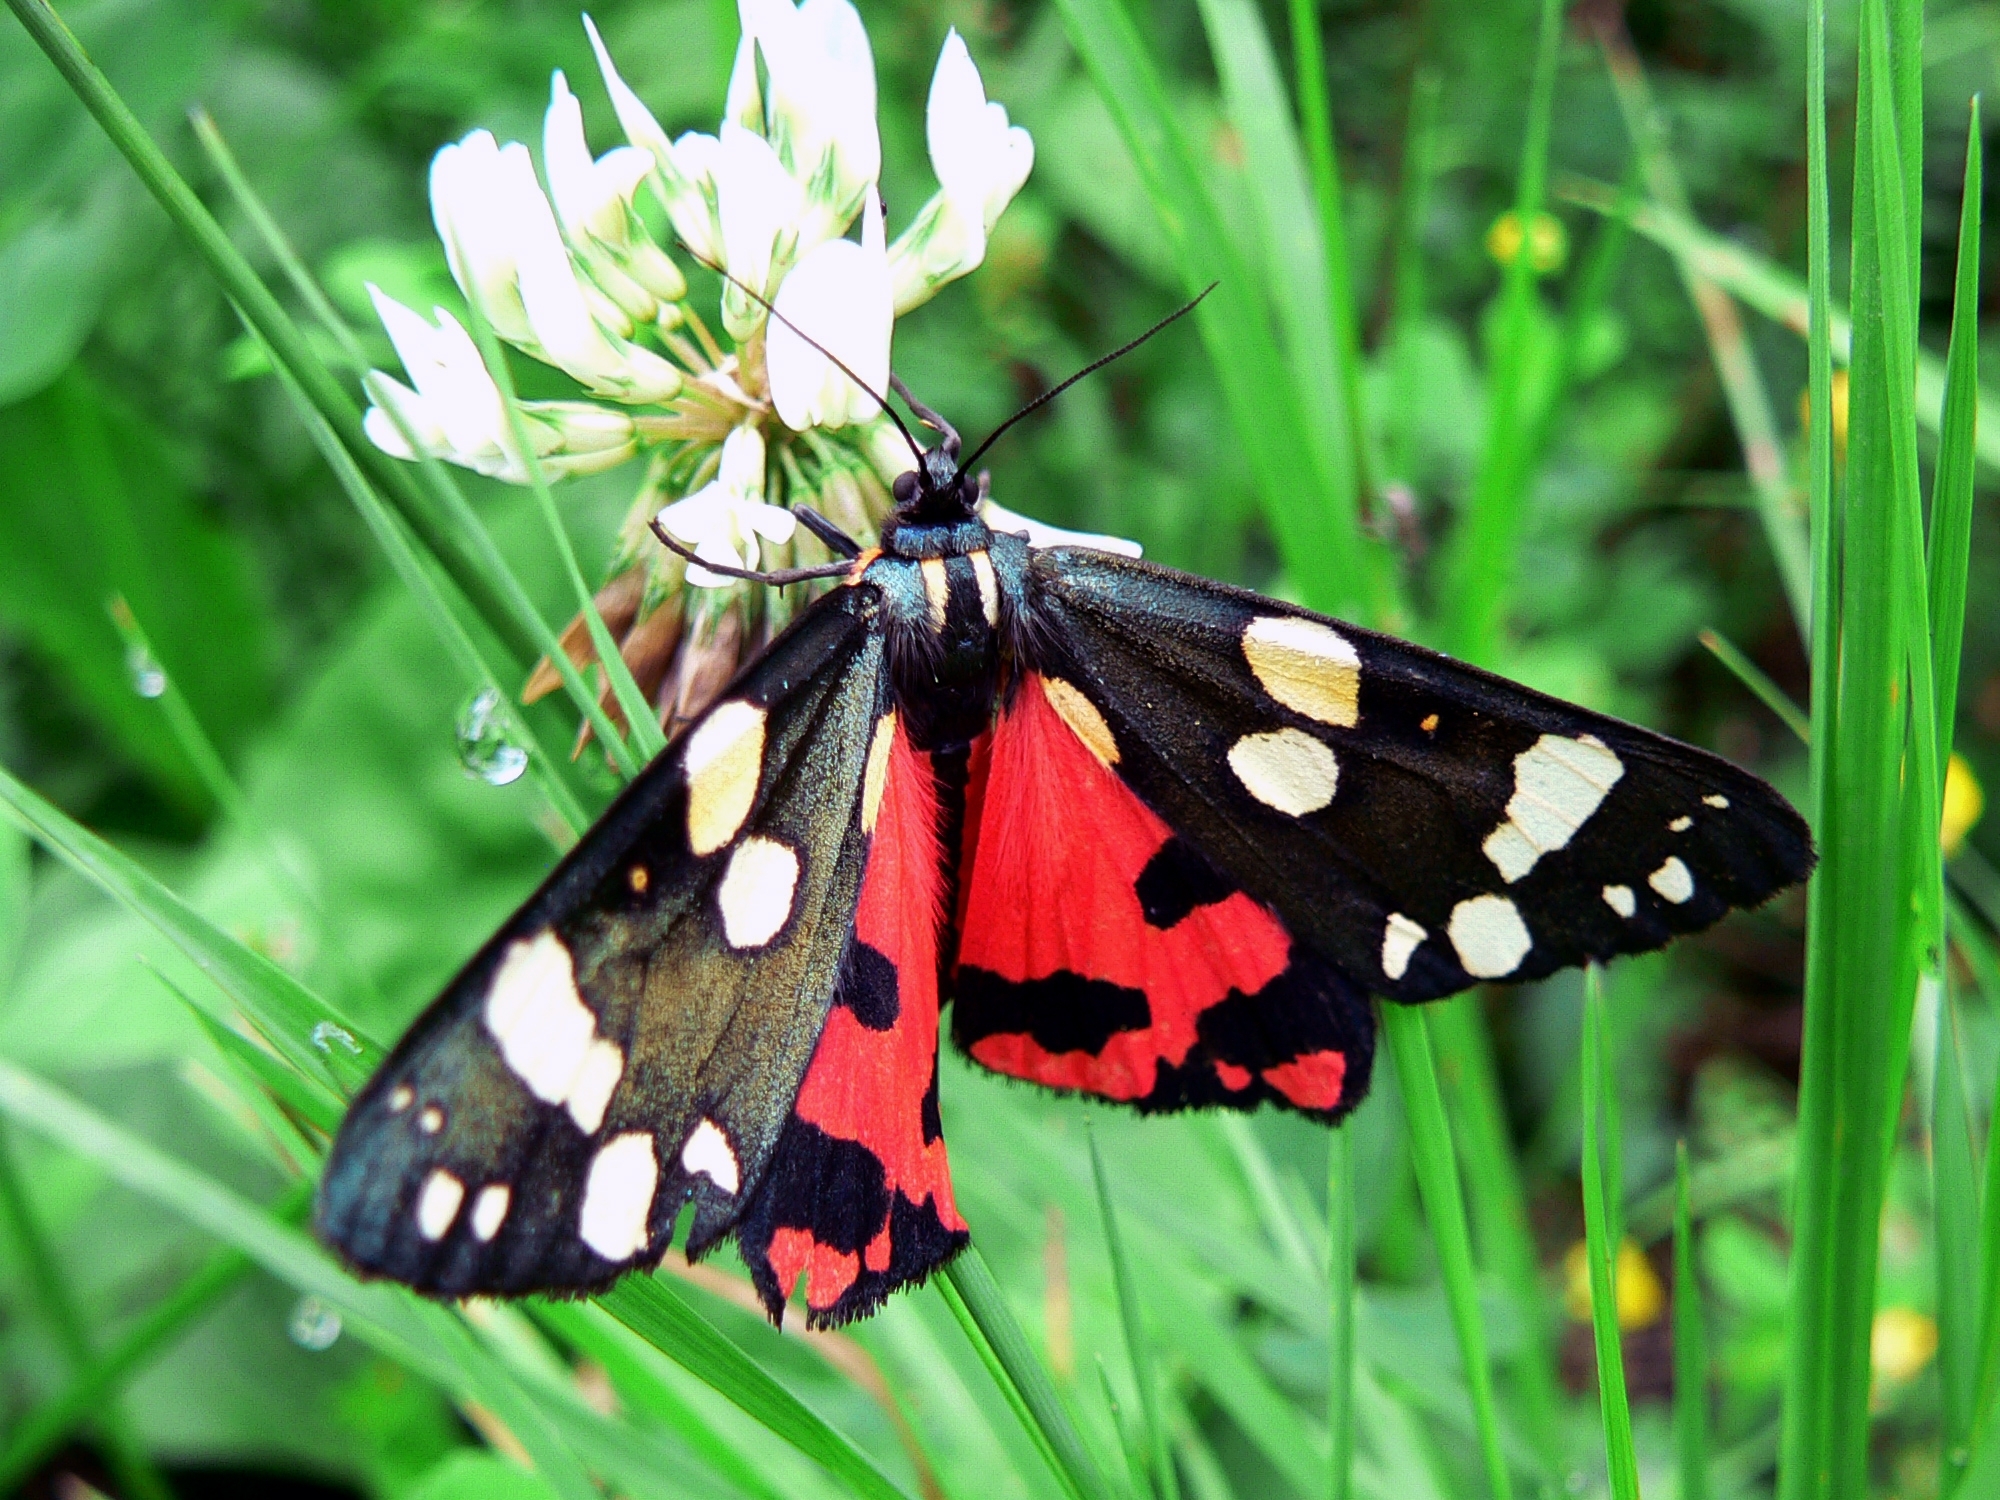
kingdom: Animalia
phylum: Arthropoda
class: Insecta
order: Lepidoptera
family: Erebidae
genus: Callimorpha
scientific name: Callimorpha dominula
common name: Scarlet tiger
